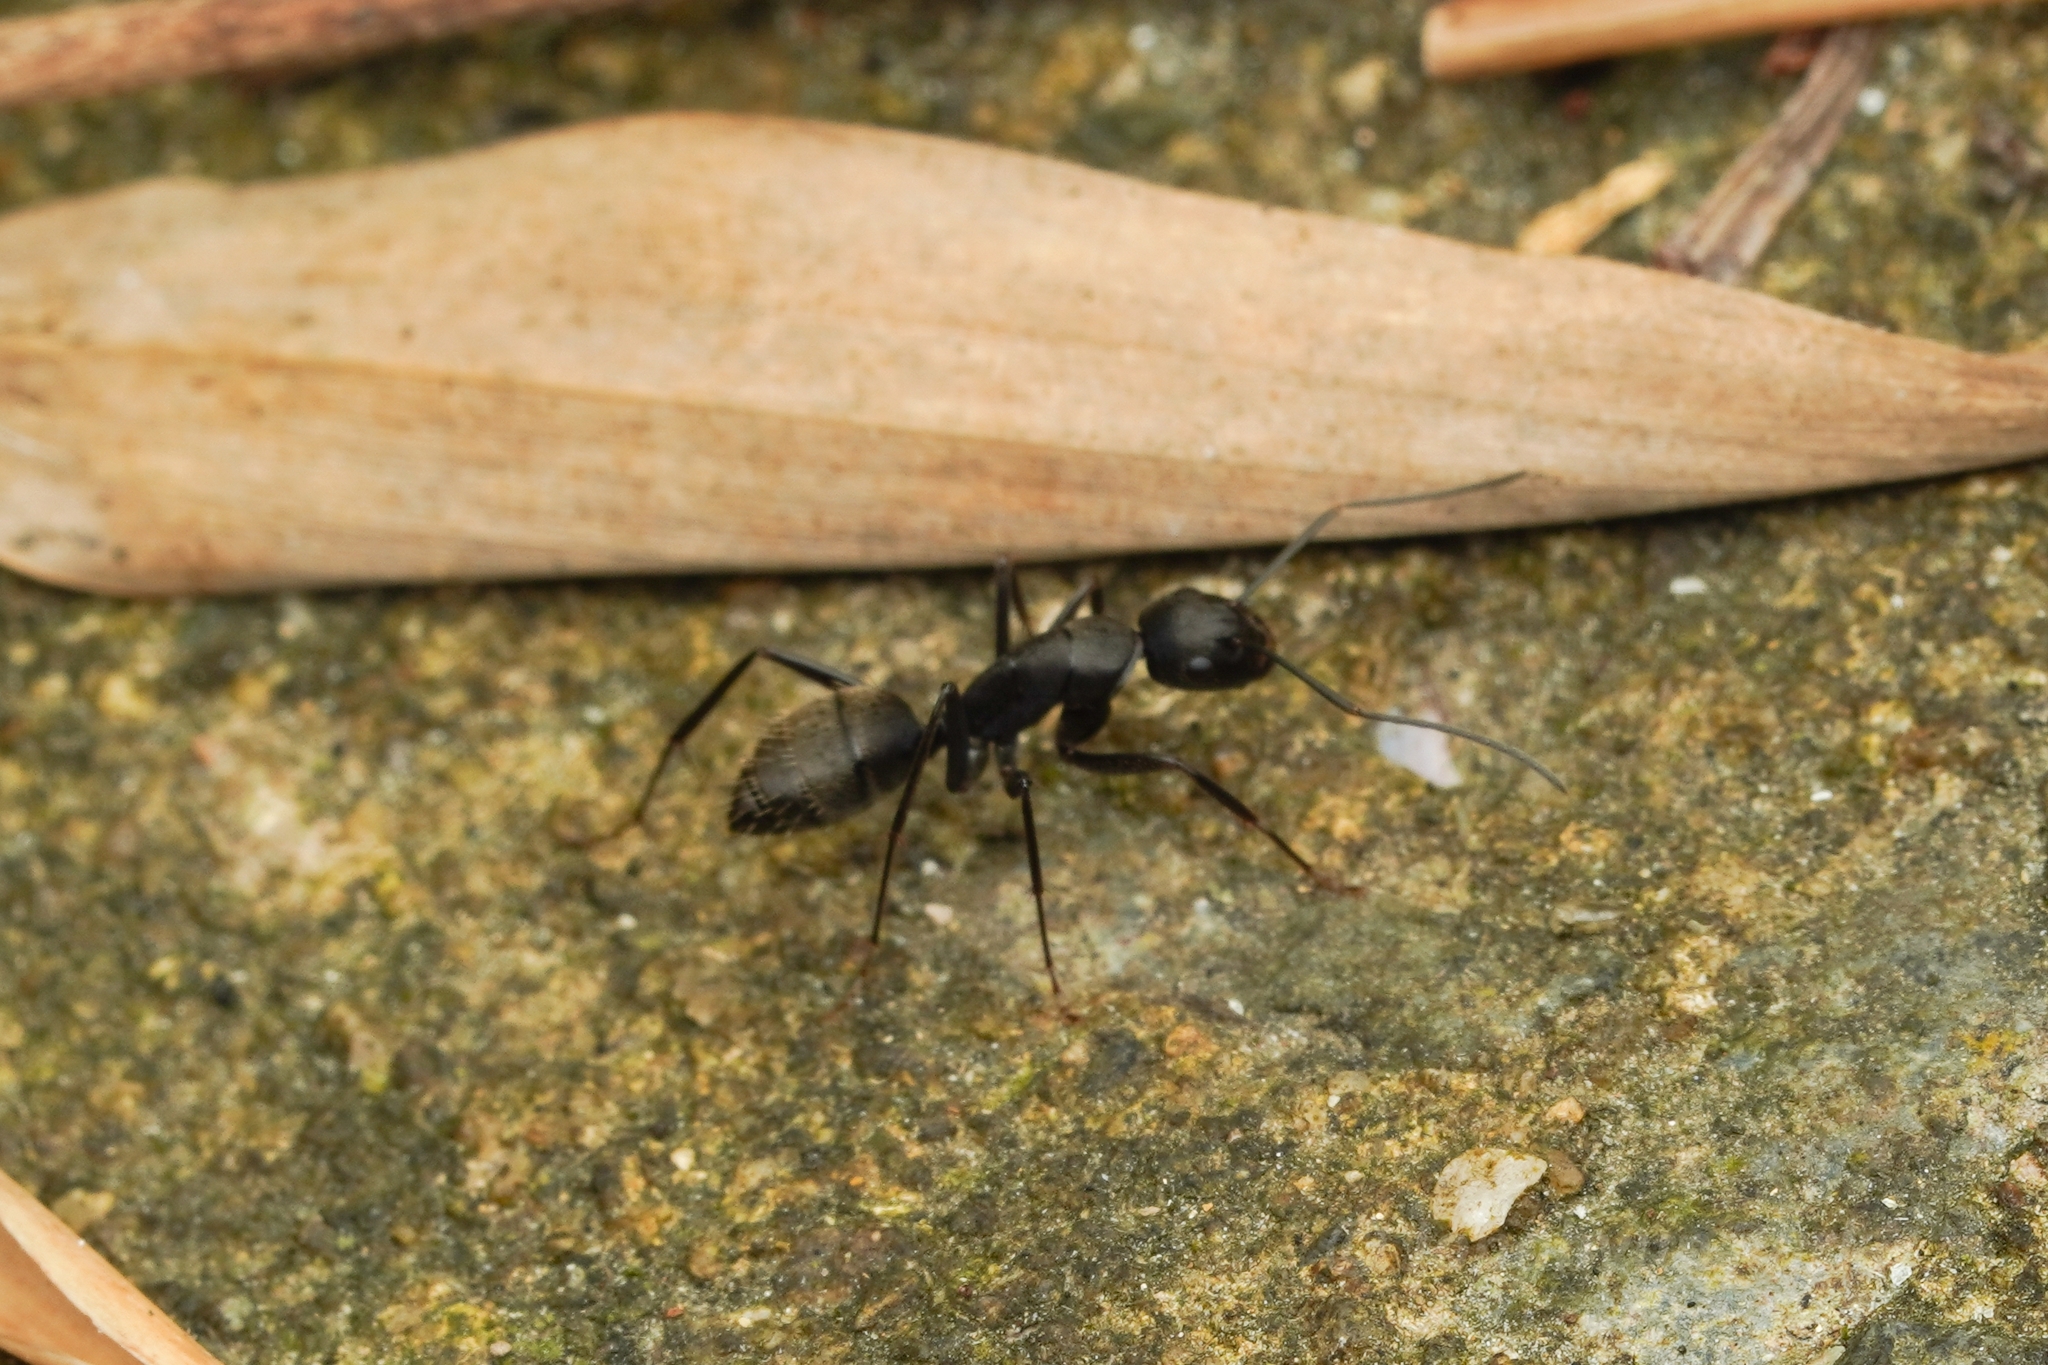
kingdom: Animalia
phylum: Arthropoda
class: Insecta
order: Hymenoptera
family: Formicidae
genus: Camponotus
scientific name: Camponotus japonicus
